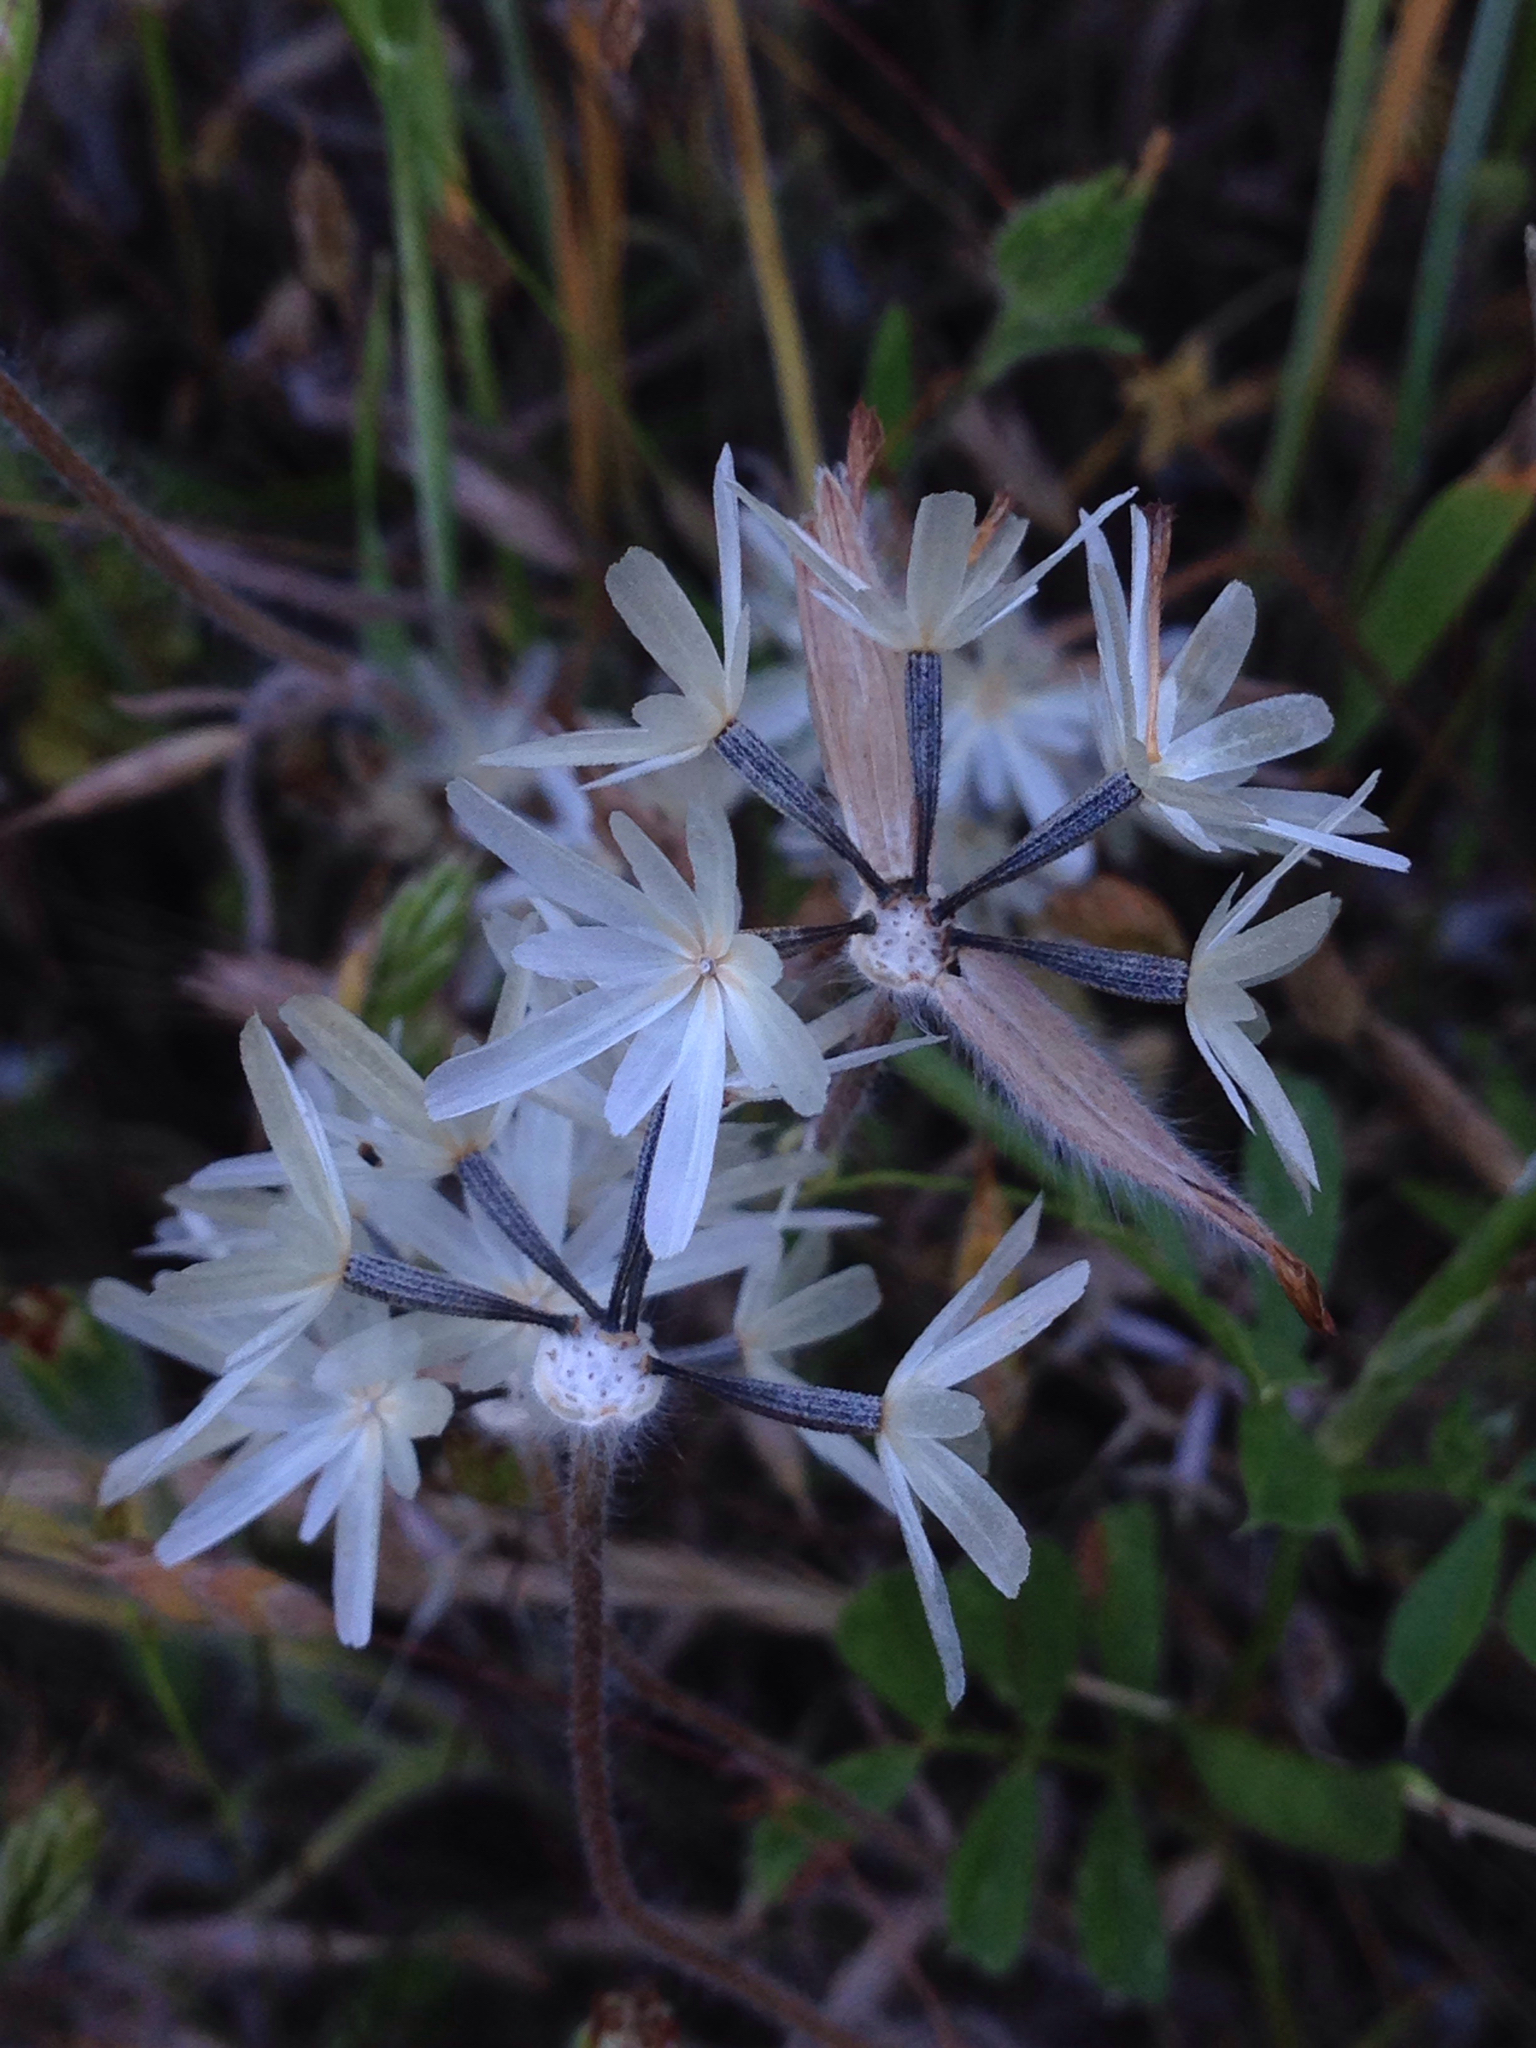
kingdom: Plantae
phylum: Tracheophyta
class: Magnoliopsida
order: Asterales
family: Asteraceae
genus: Achyrachaena
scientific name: Achyrachaena mollis
